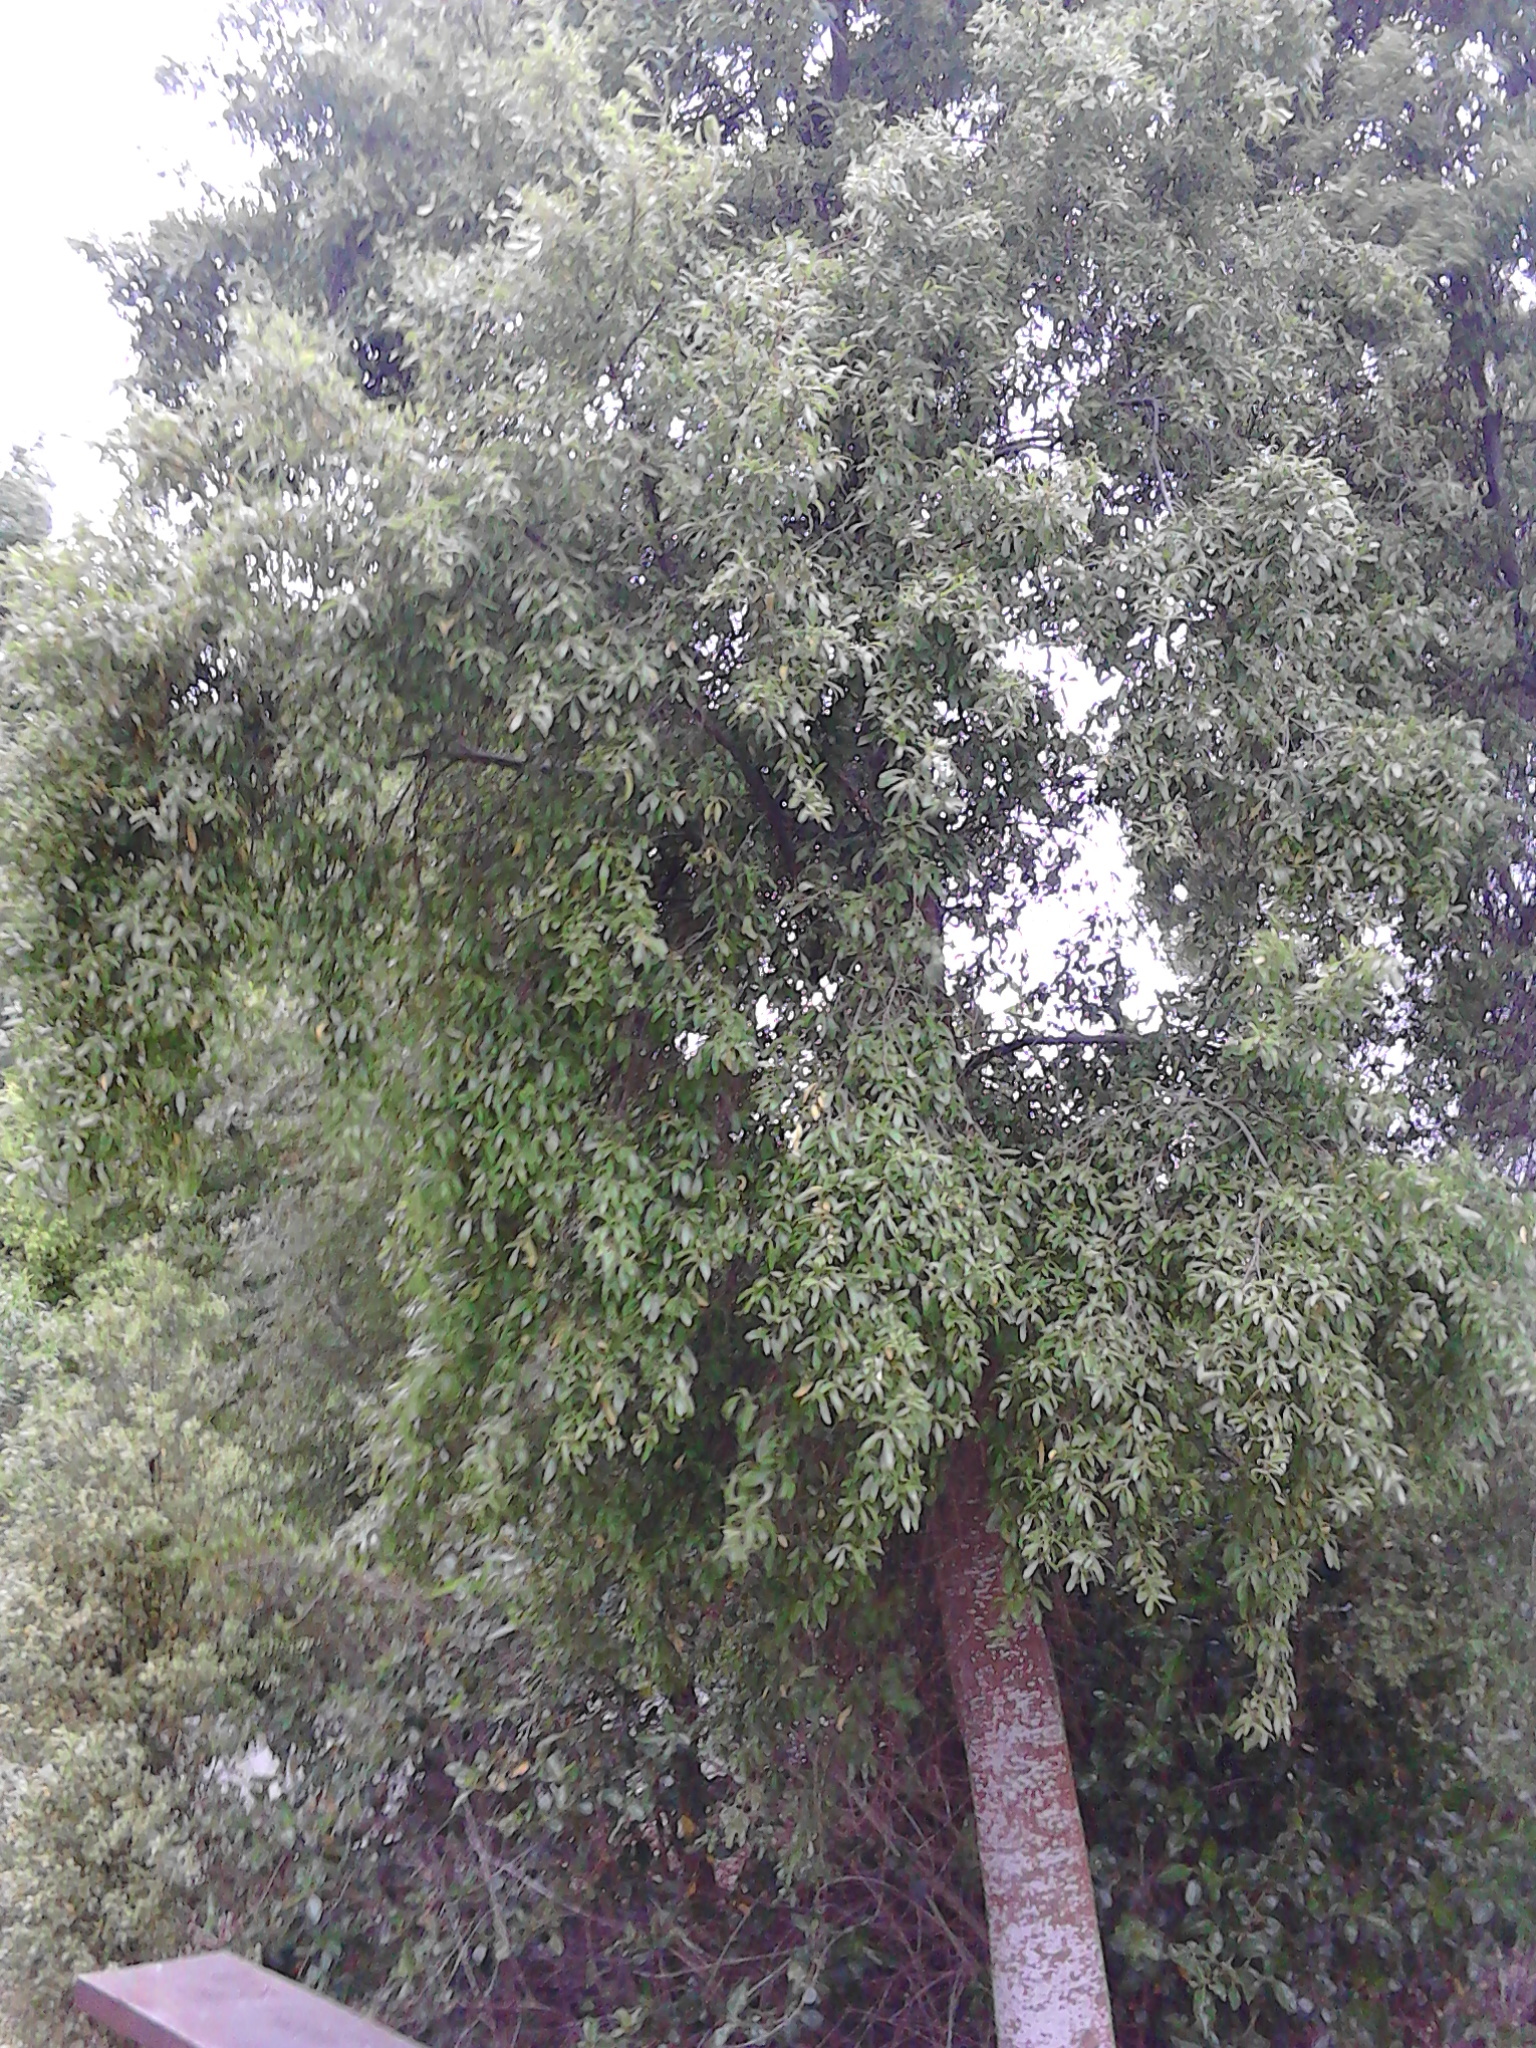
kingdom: Plantae
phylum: Tracheophyta
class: Magnoliopsida
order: Malvales
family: Malvaceae
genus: Hoheria
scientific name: Hoheria angustifolia
